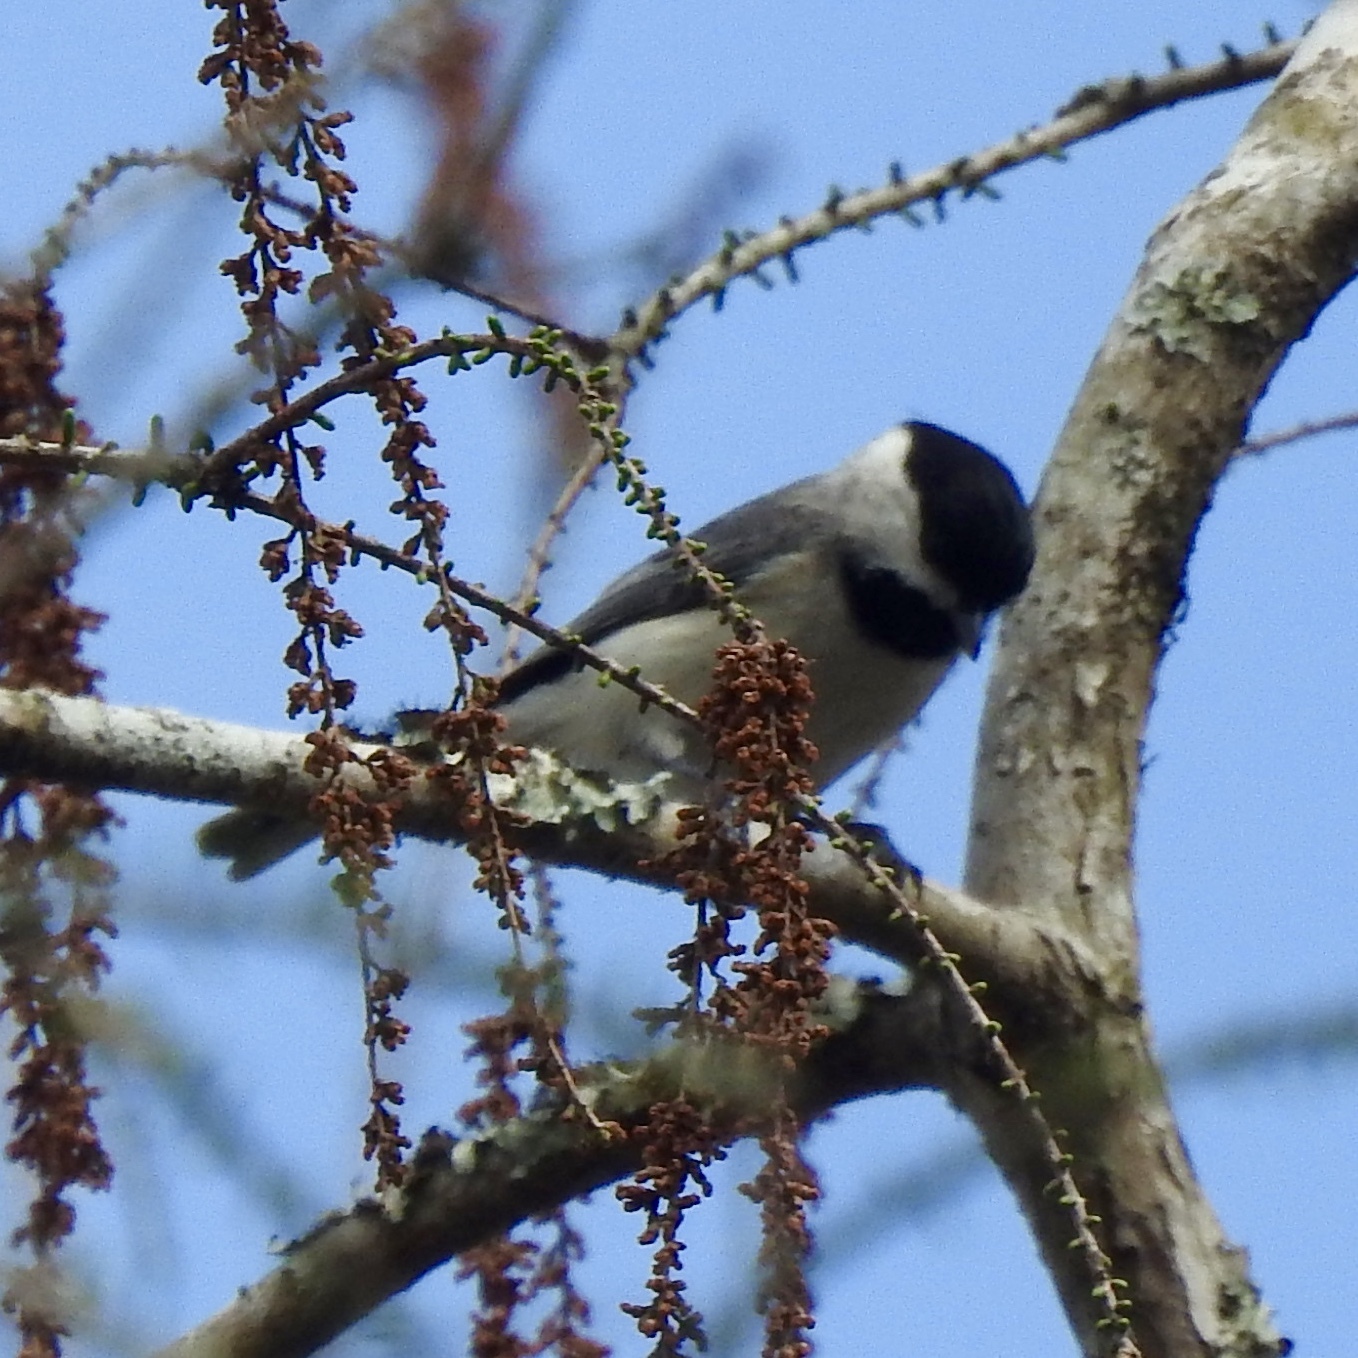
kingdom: Animalia
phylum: Chordata
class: Aves
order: Passeriformes
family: Paridae
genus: Poecile
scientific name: Poecile carolinensis
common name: Carolina chickadee
